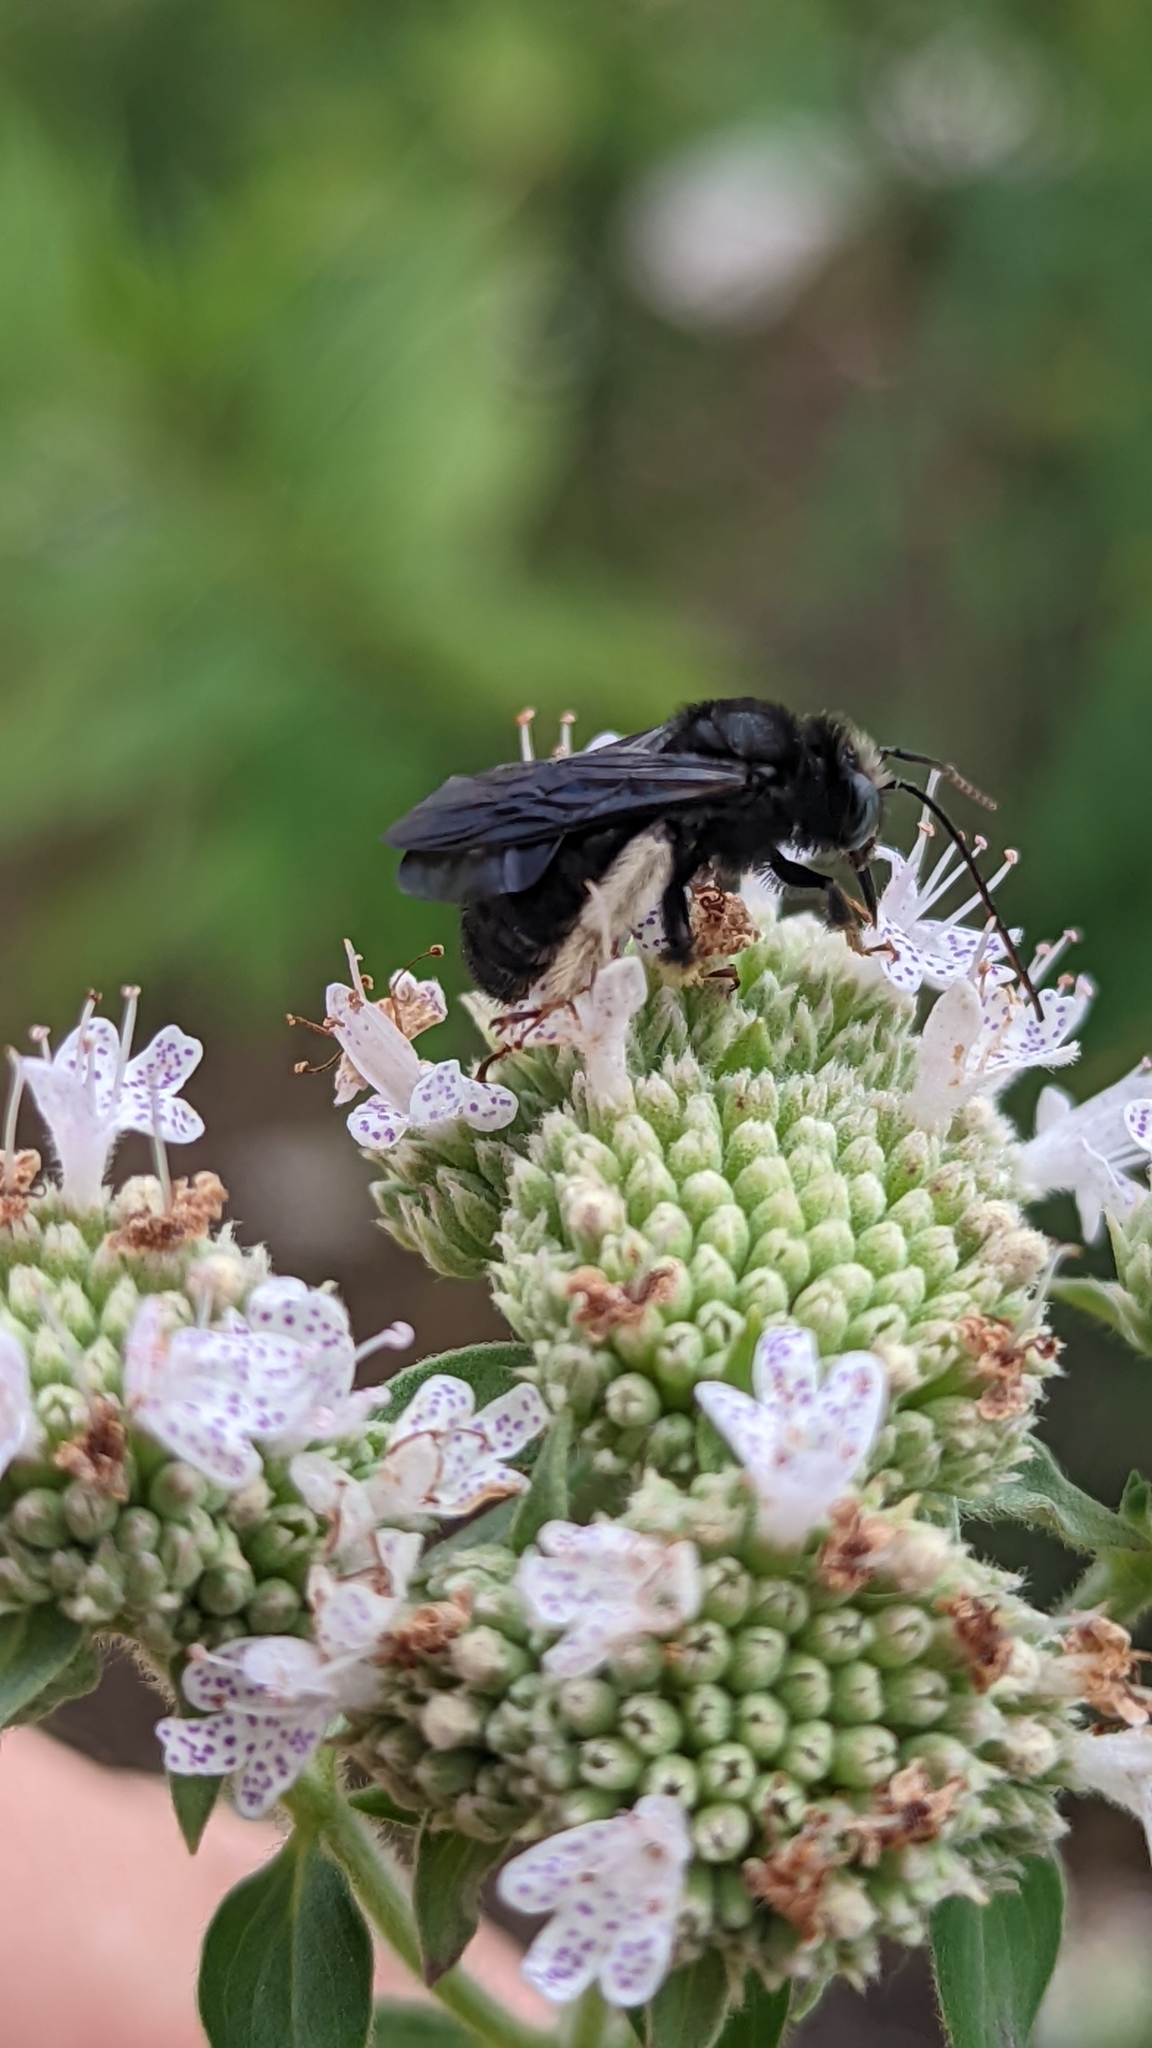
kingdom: Animalia
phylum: Arthropoda
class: Insecta
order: Hymenoptera
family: Apidae
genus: Melissodes
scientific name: Melissodes bimaculatus
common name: Two-spotted long-horned bee
